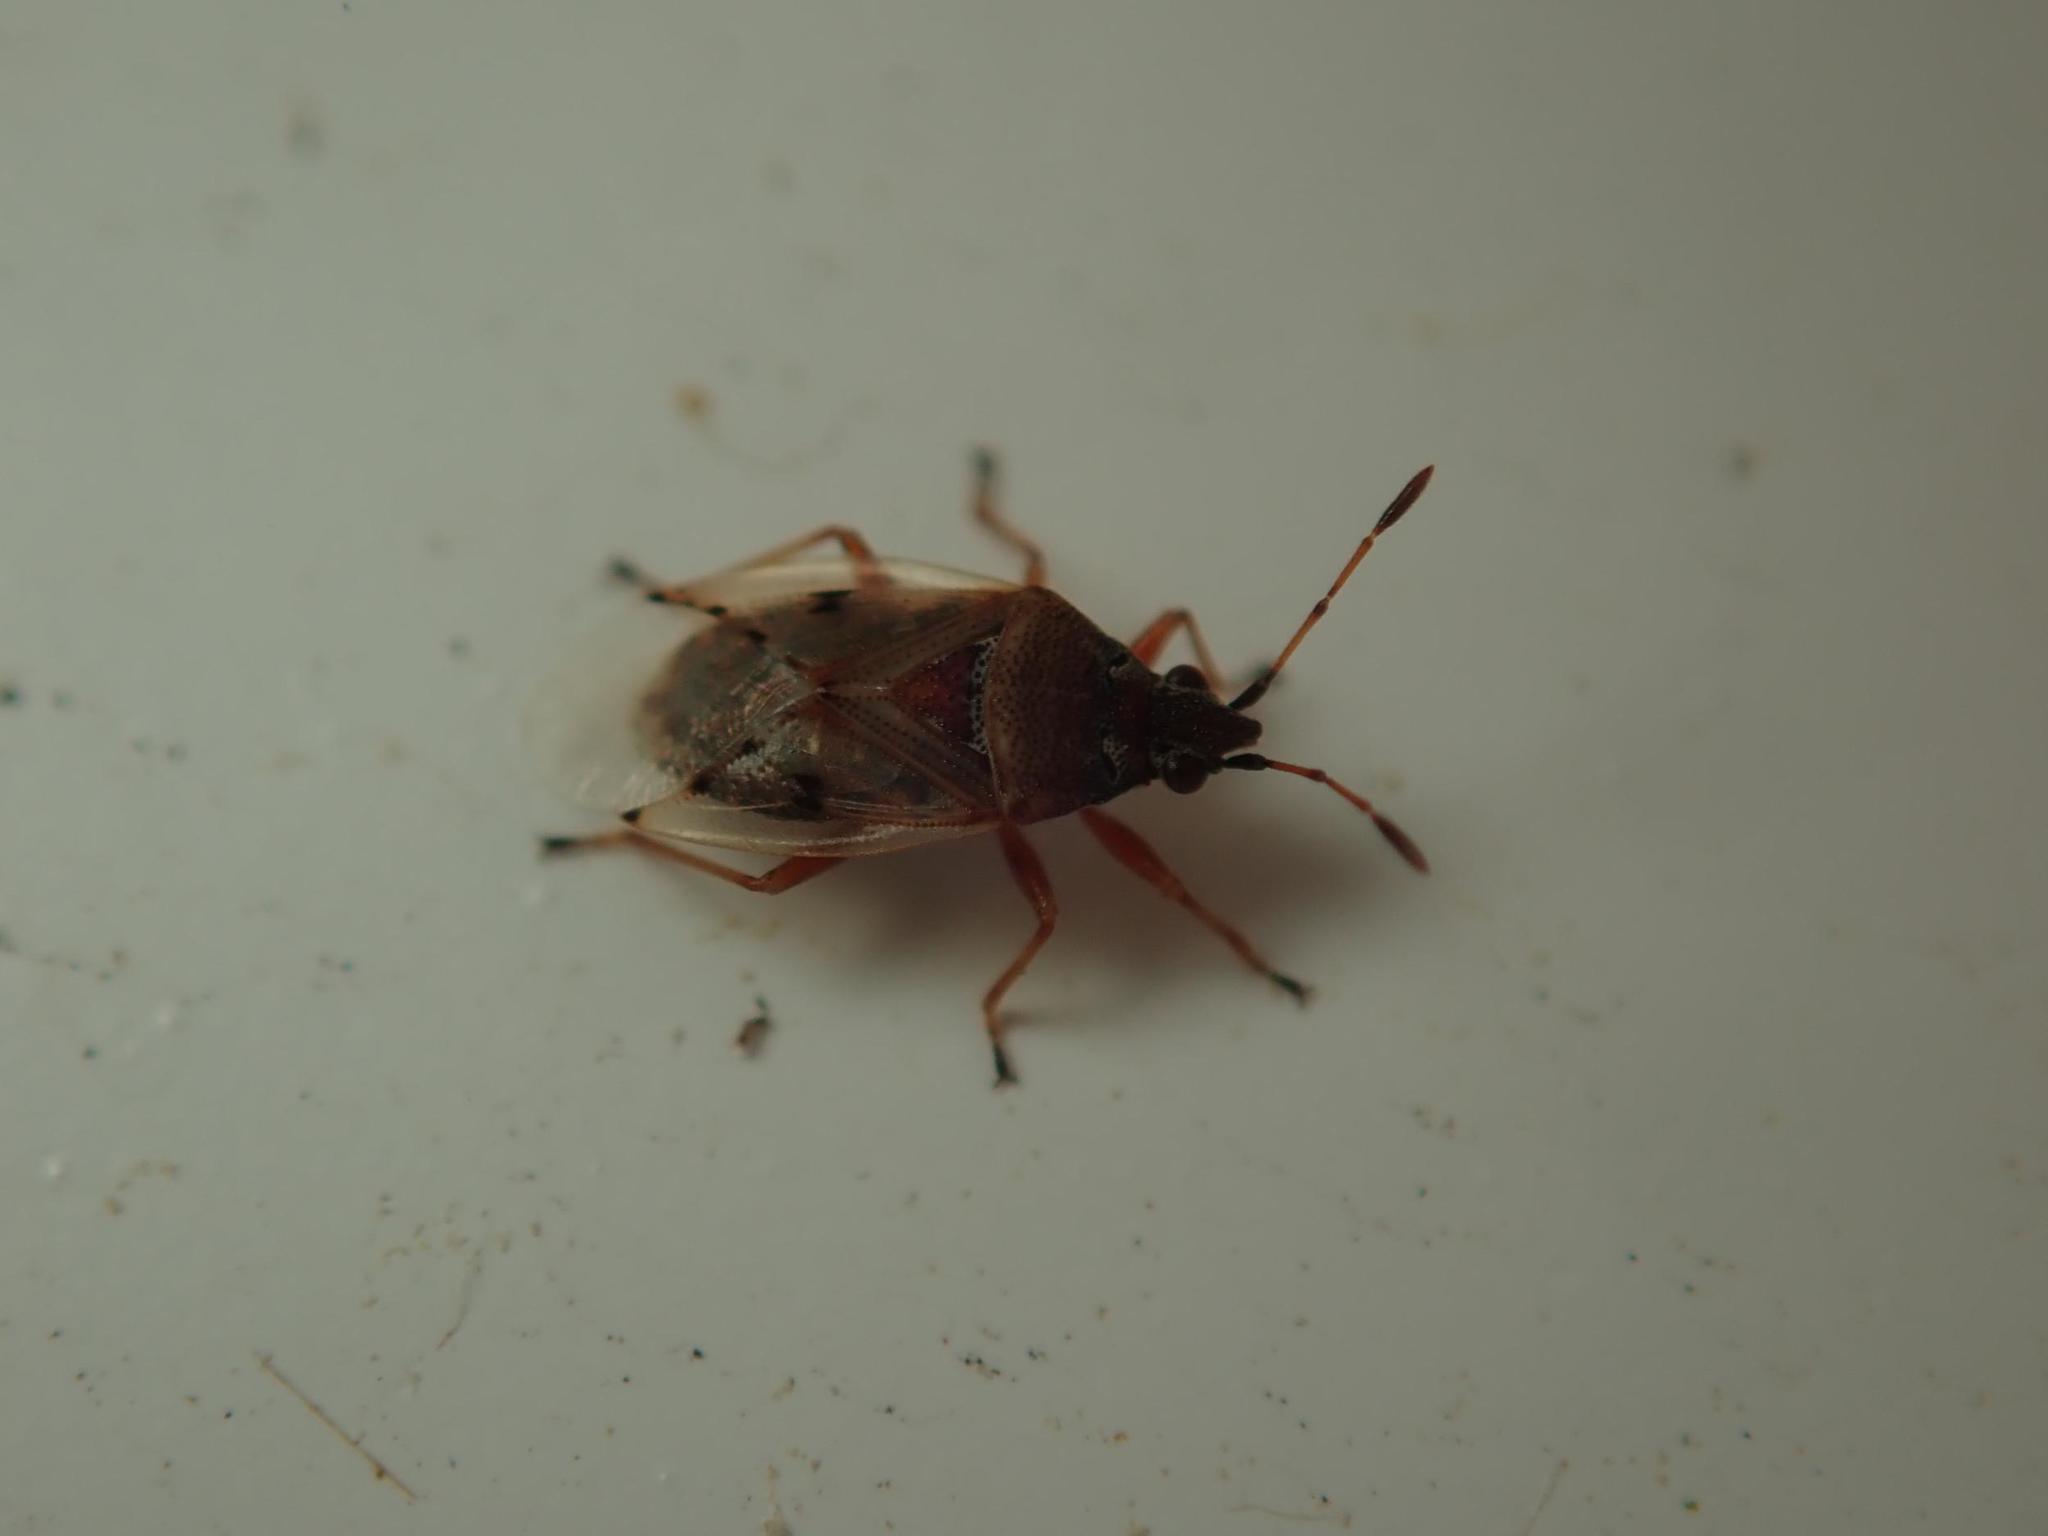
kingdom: Animalia
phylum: Arthropoda
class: Insecta
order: Hemiptera
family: Lygaeidae
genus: Kleidocerys
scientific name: Kleidocerys resedae
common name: Birch catkin bug
